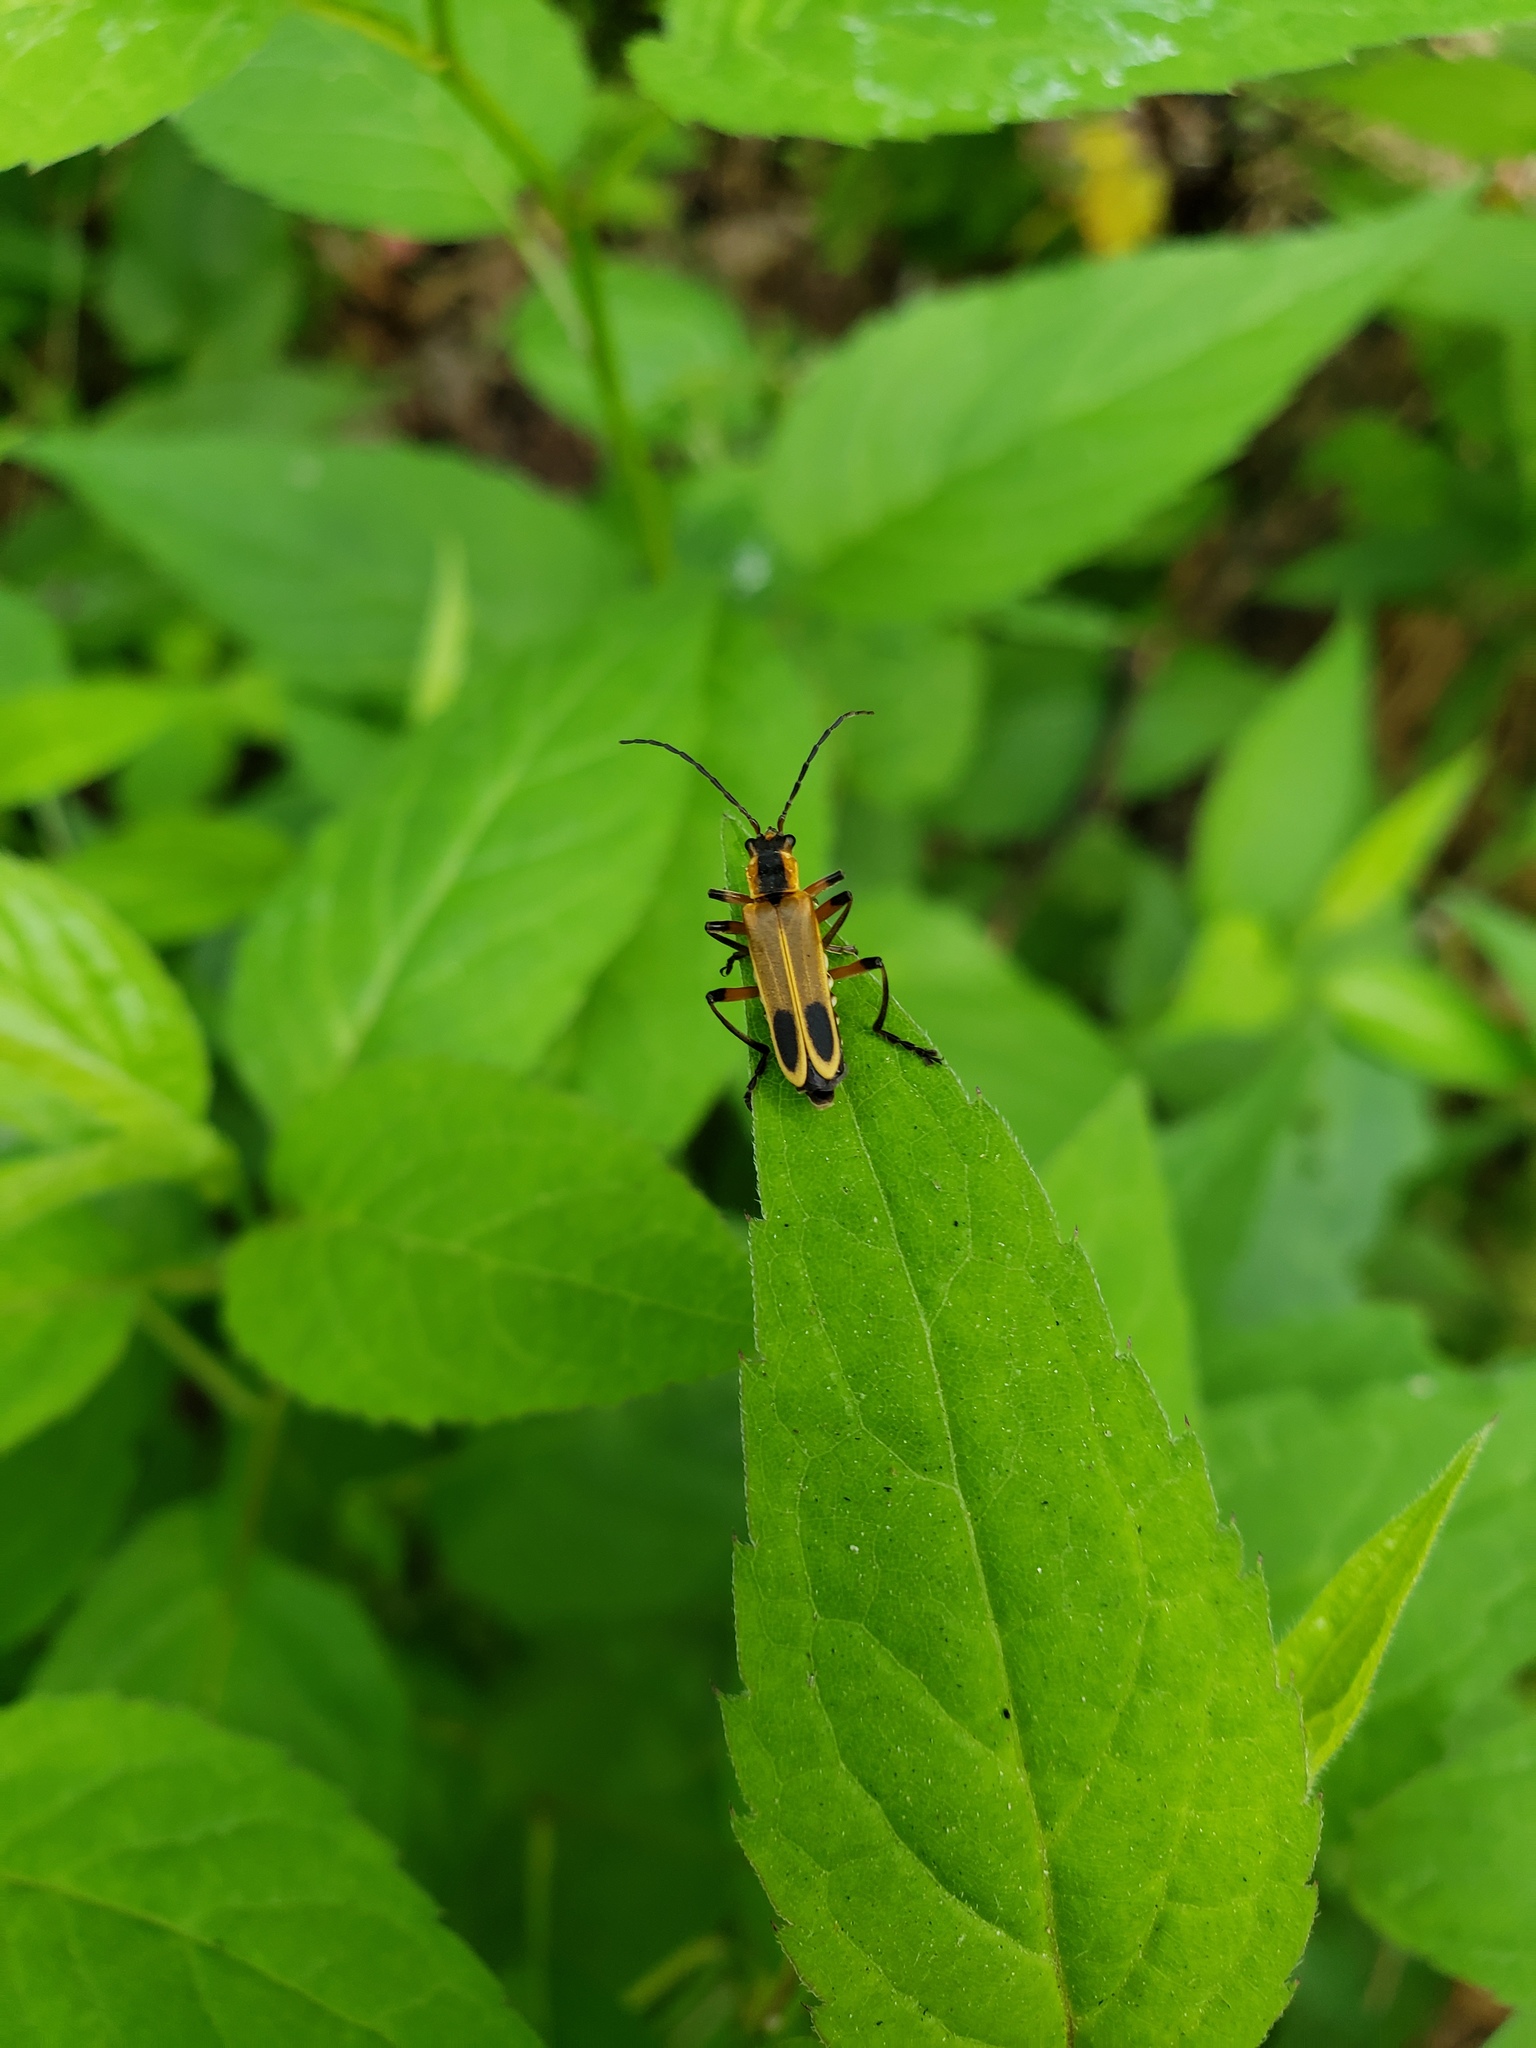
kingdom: Animalia
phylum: Arthropoda
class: Insecta
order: Coleoptera
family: Cantharidae
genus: Chauliognathus
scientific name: Chauliognathus marginatus
